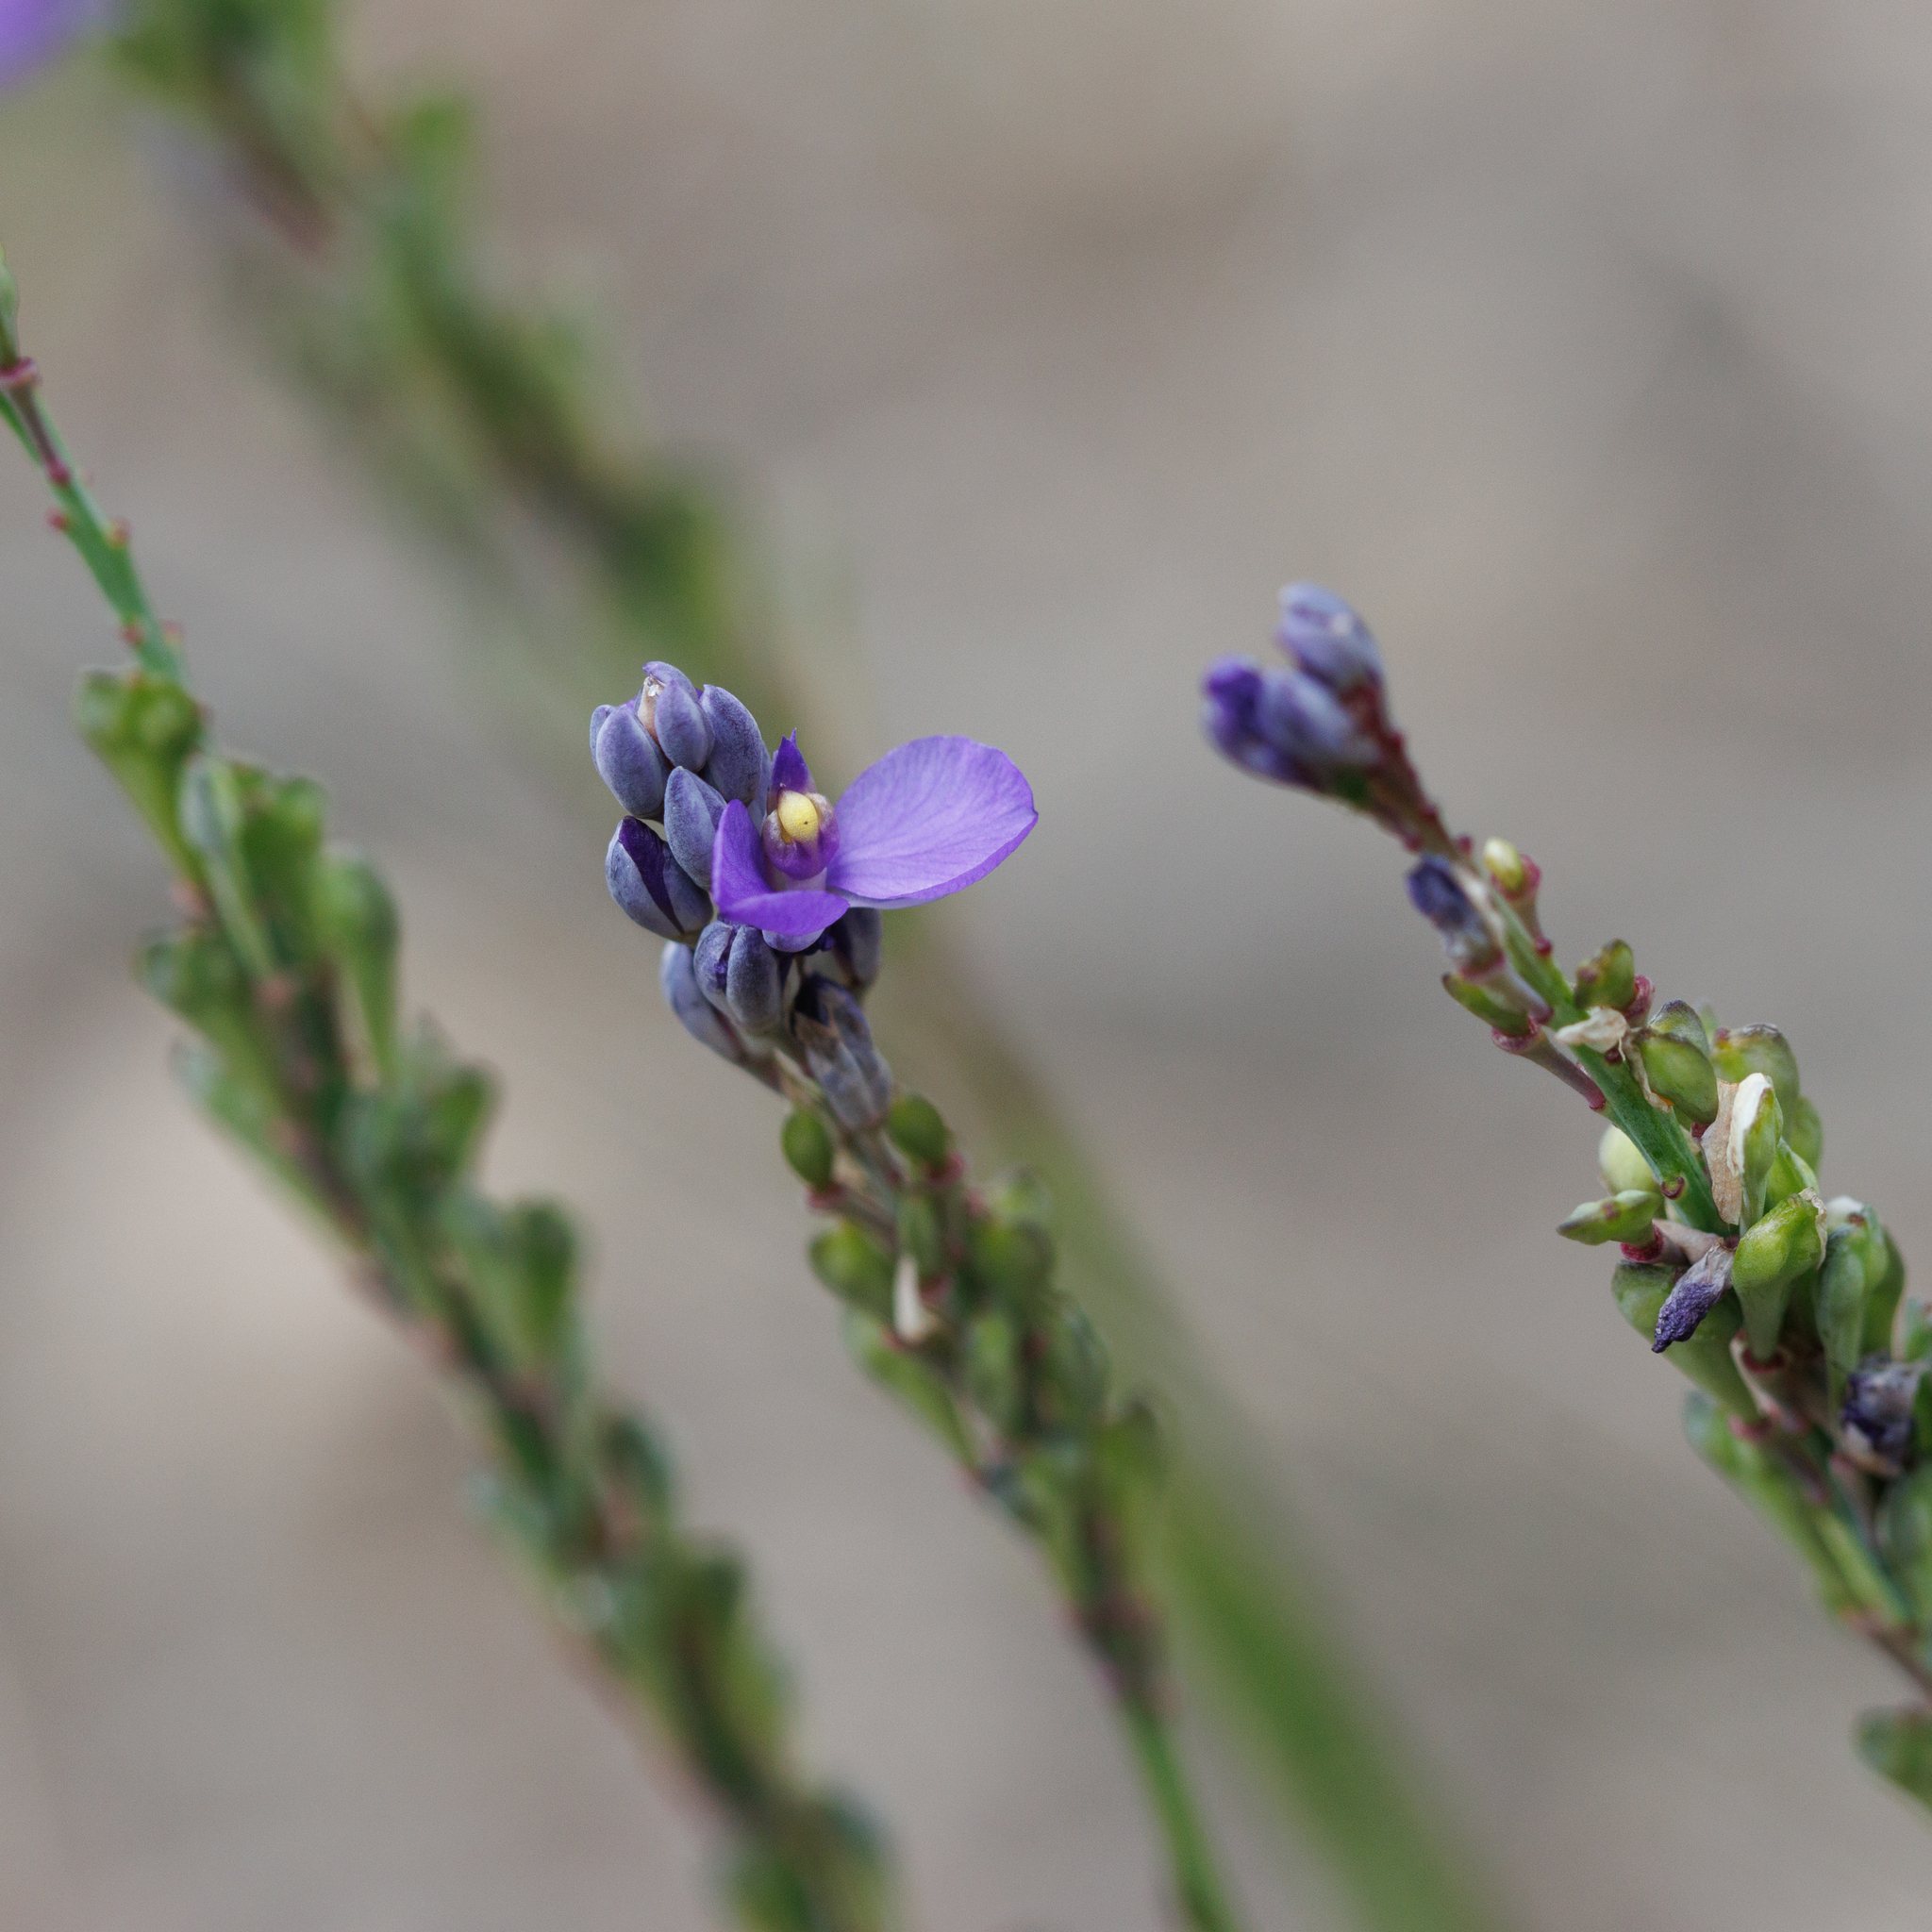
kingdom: Plantae
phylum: Tracheophyta
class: Magnoliopsida
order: Fabales
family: Polygalaceae
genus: Comesperma
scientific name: Comesperma calymega
